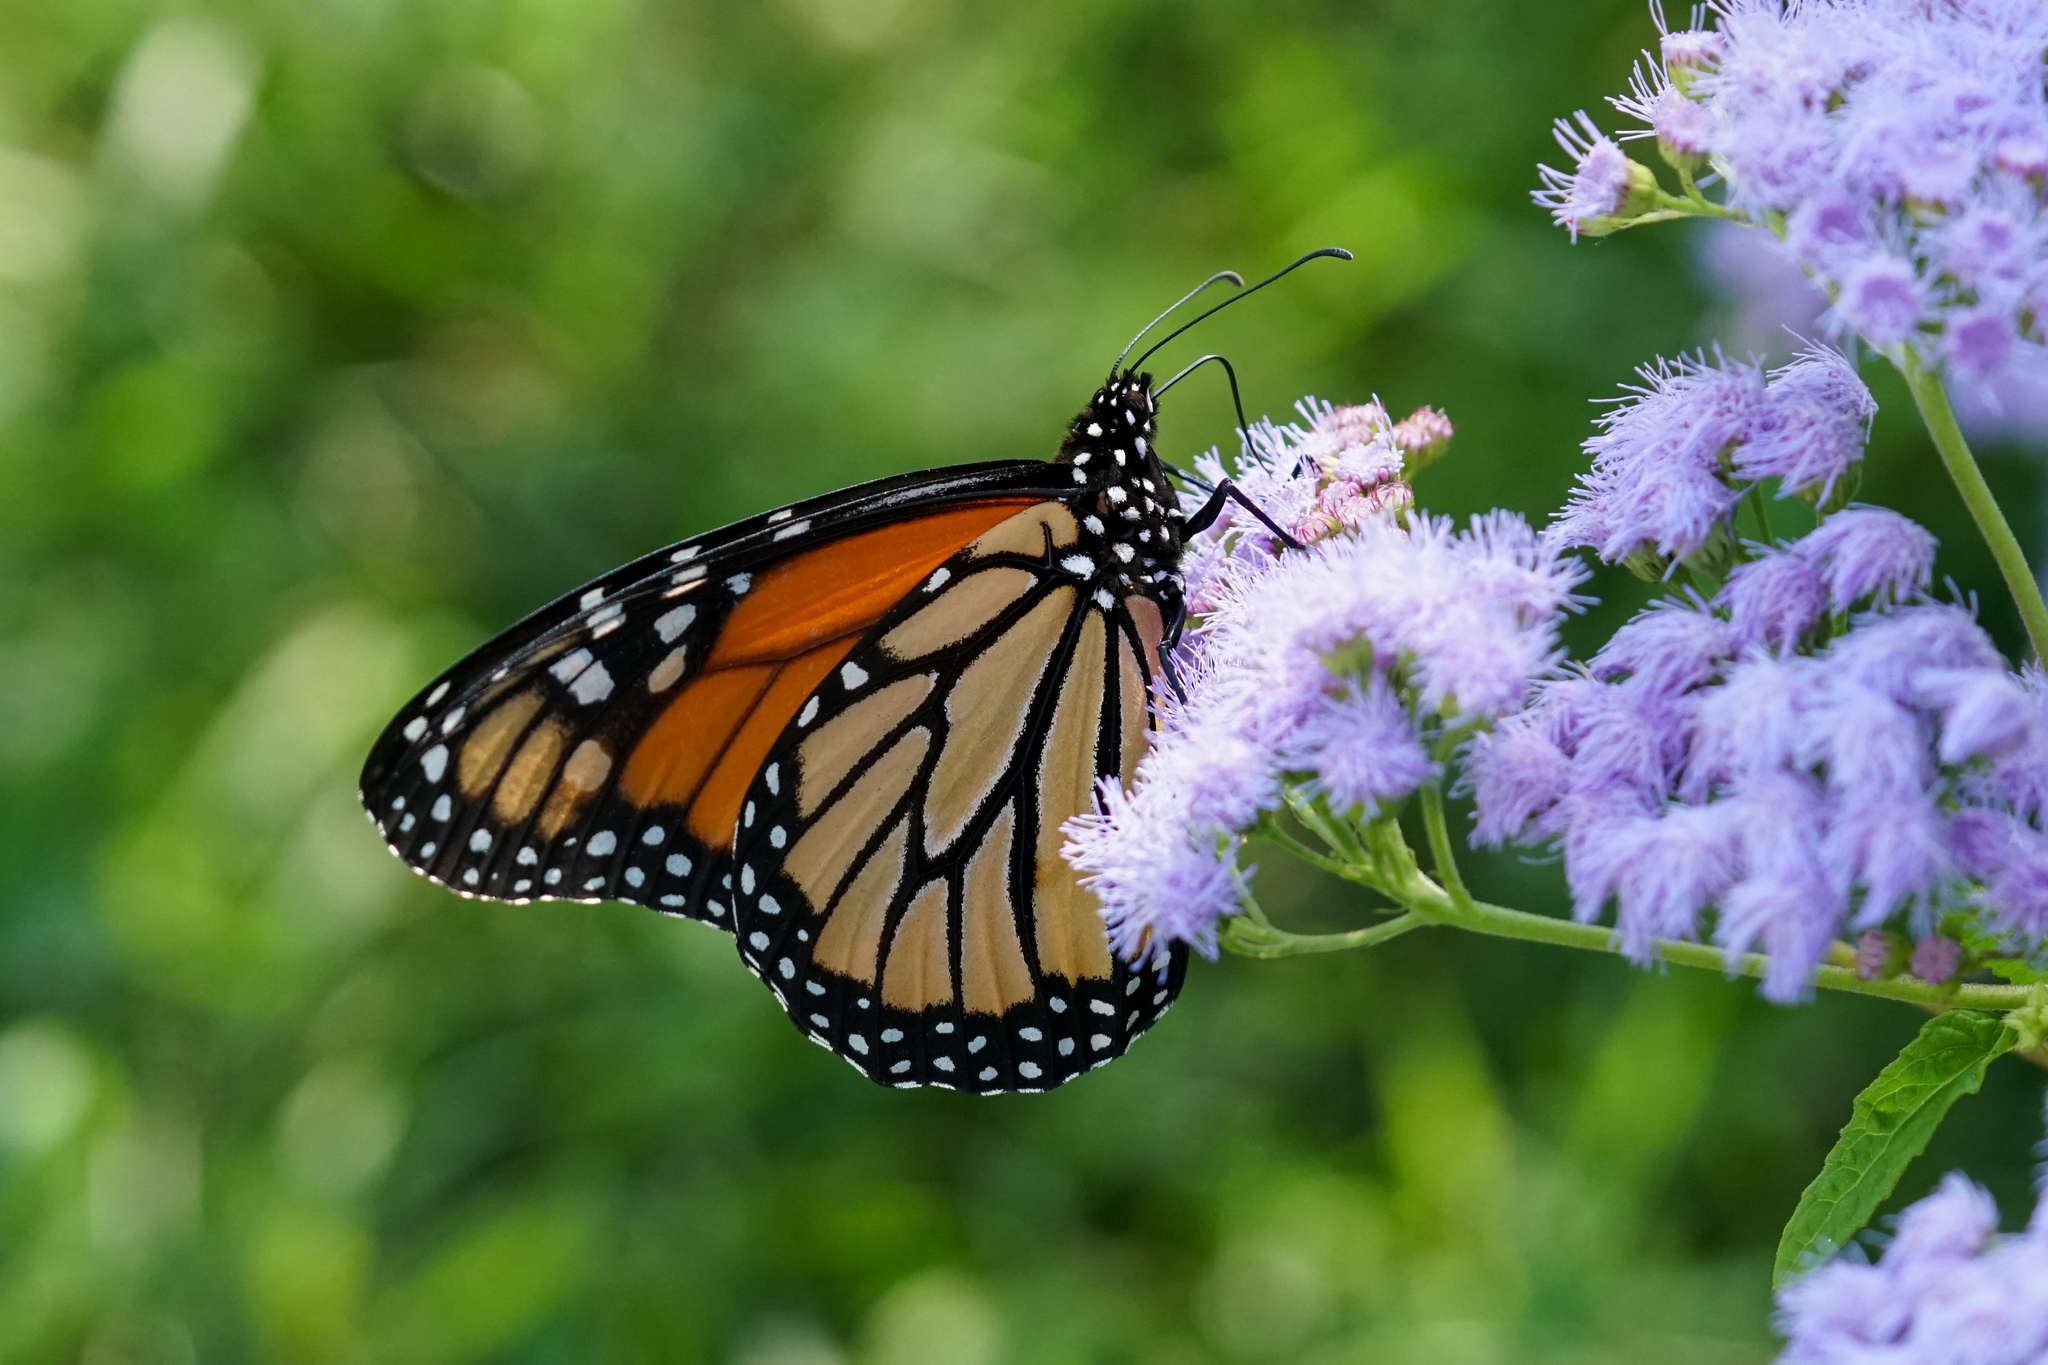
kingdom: Animalia
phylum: Arthropoda
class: Insecta
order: Lepidoptera
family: Nymphalidae
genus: Danaus
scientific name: Danaus plexippus
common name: Monarch
